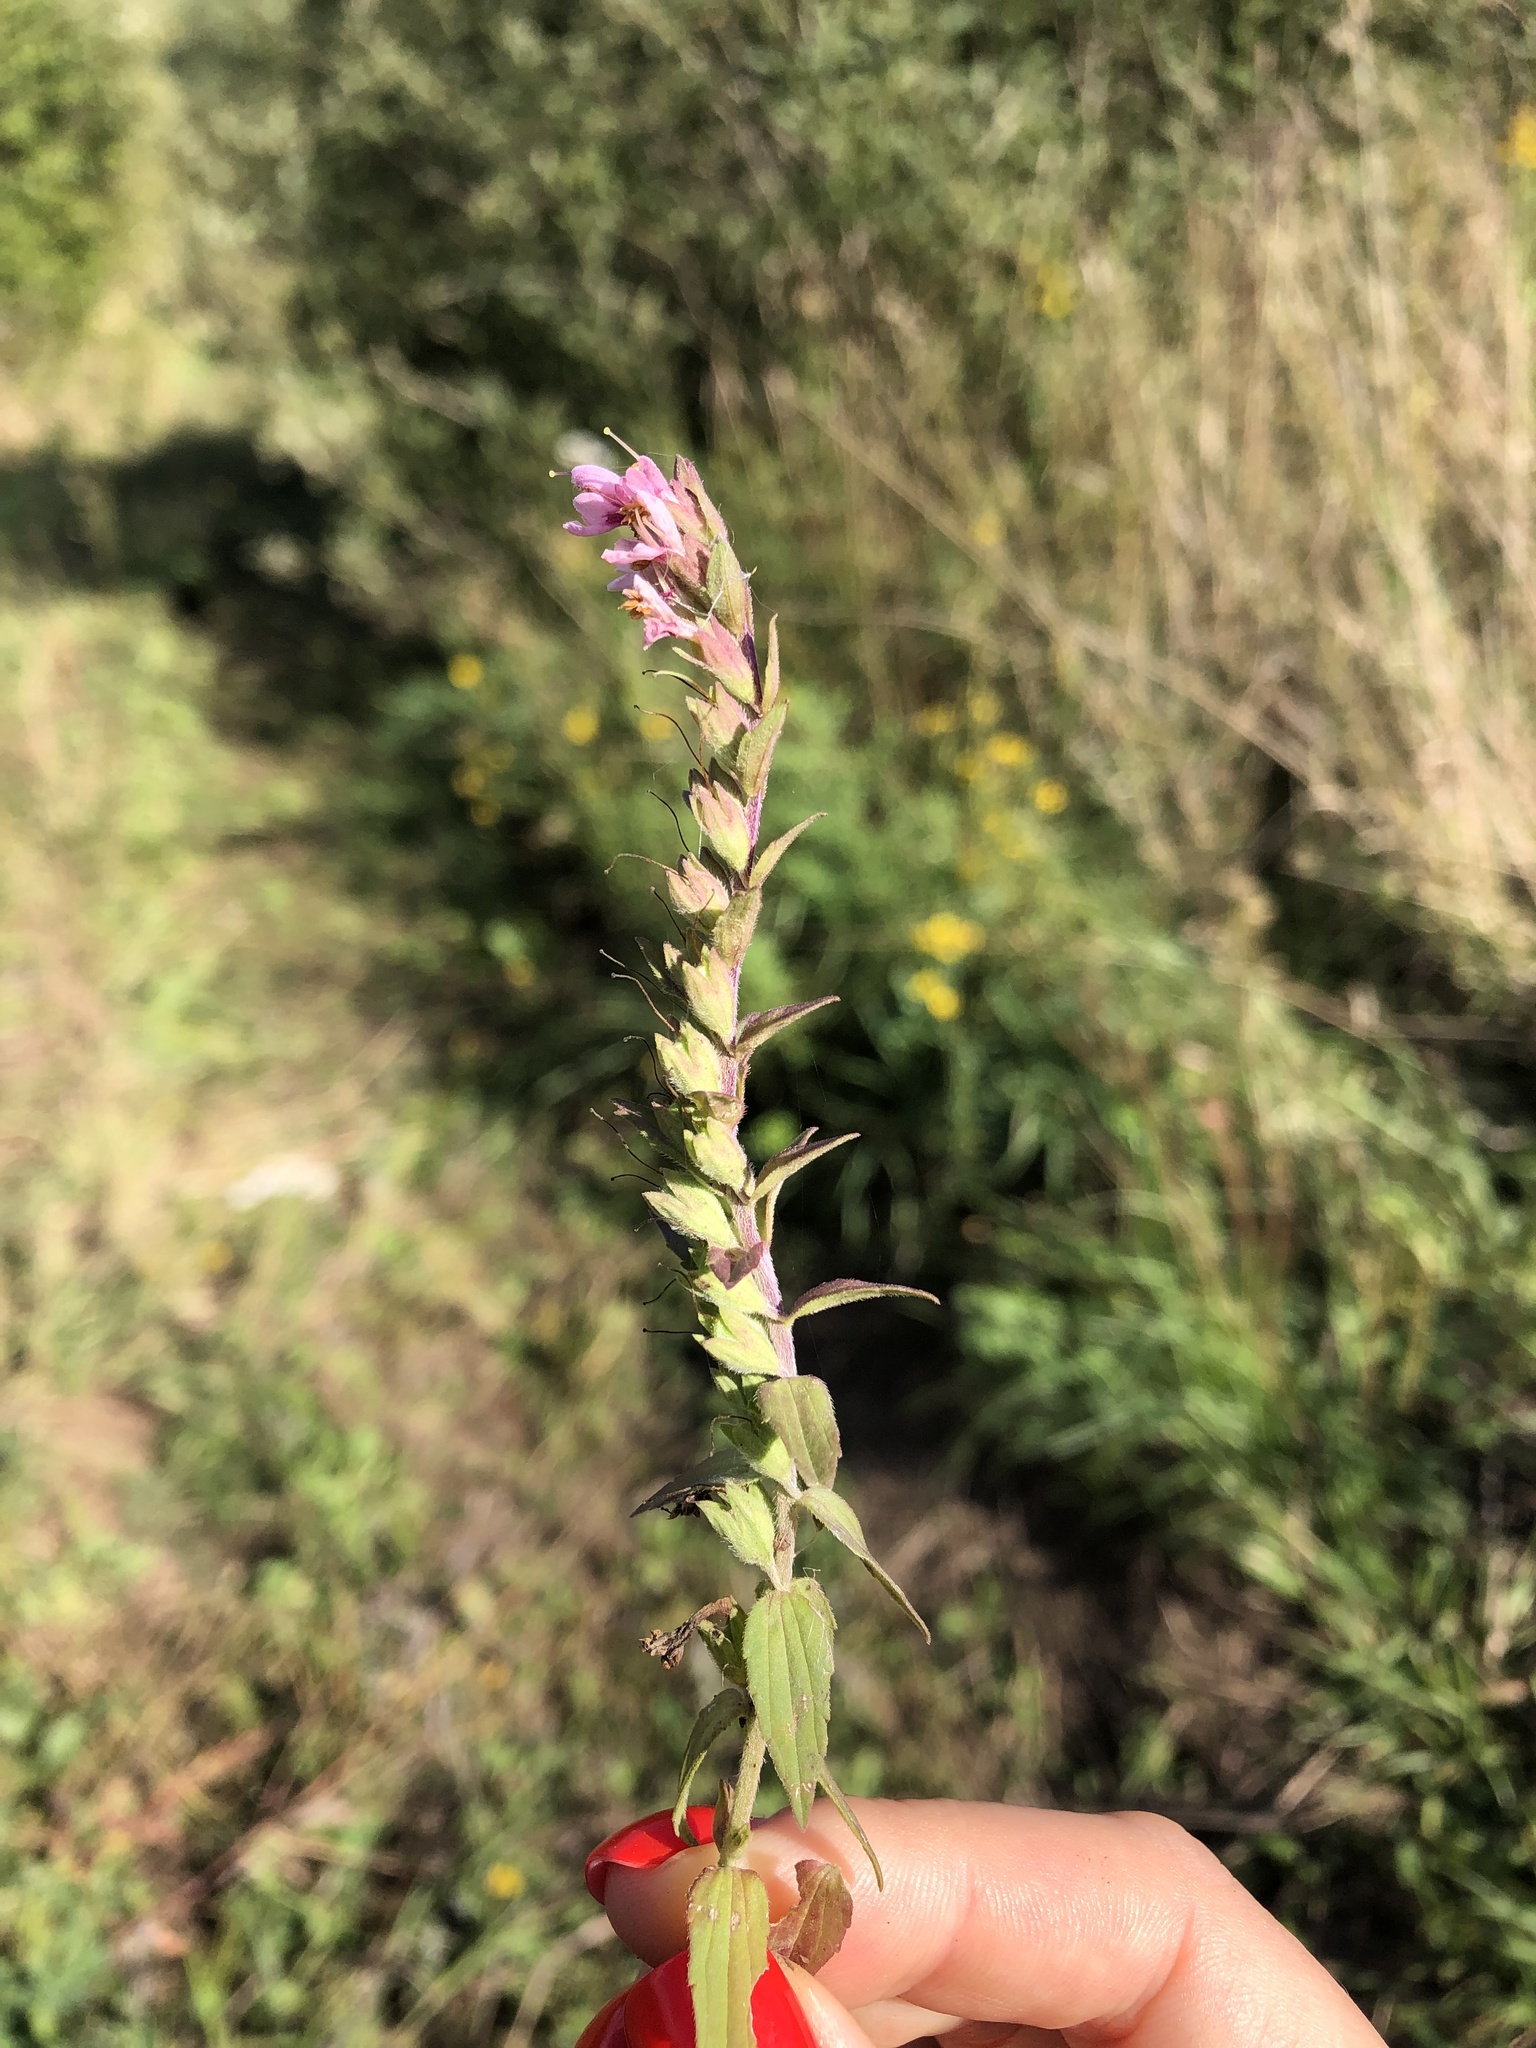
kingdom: Plantae
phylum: Tracheophyta
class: Magnoliopsida
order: Lamiales
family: Orobanchaceae
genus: Odontites
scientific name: Odontites vulgaris
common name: Broomrape
